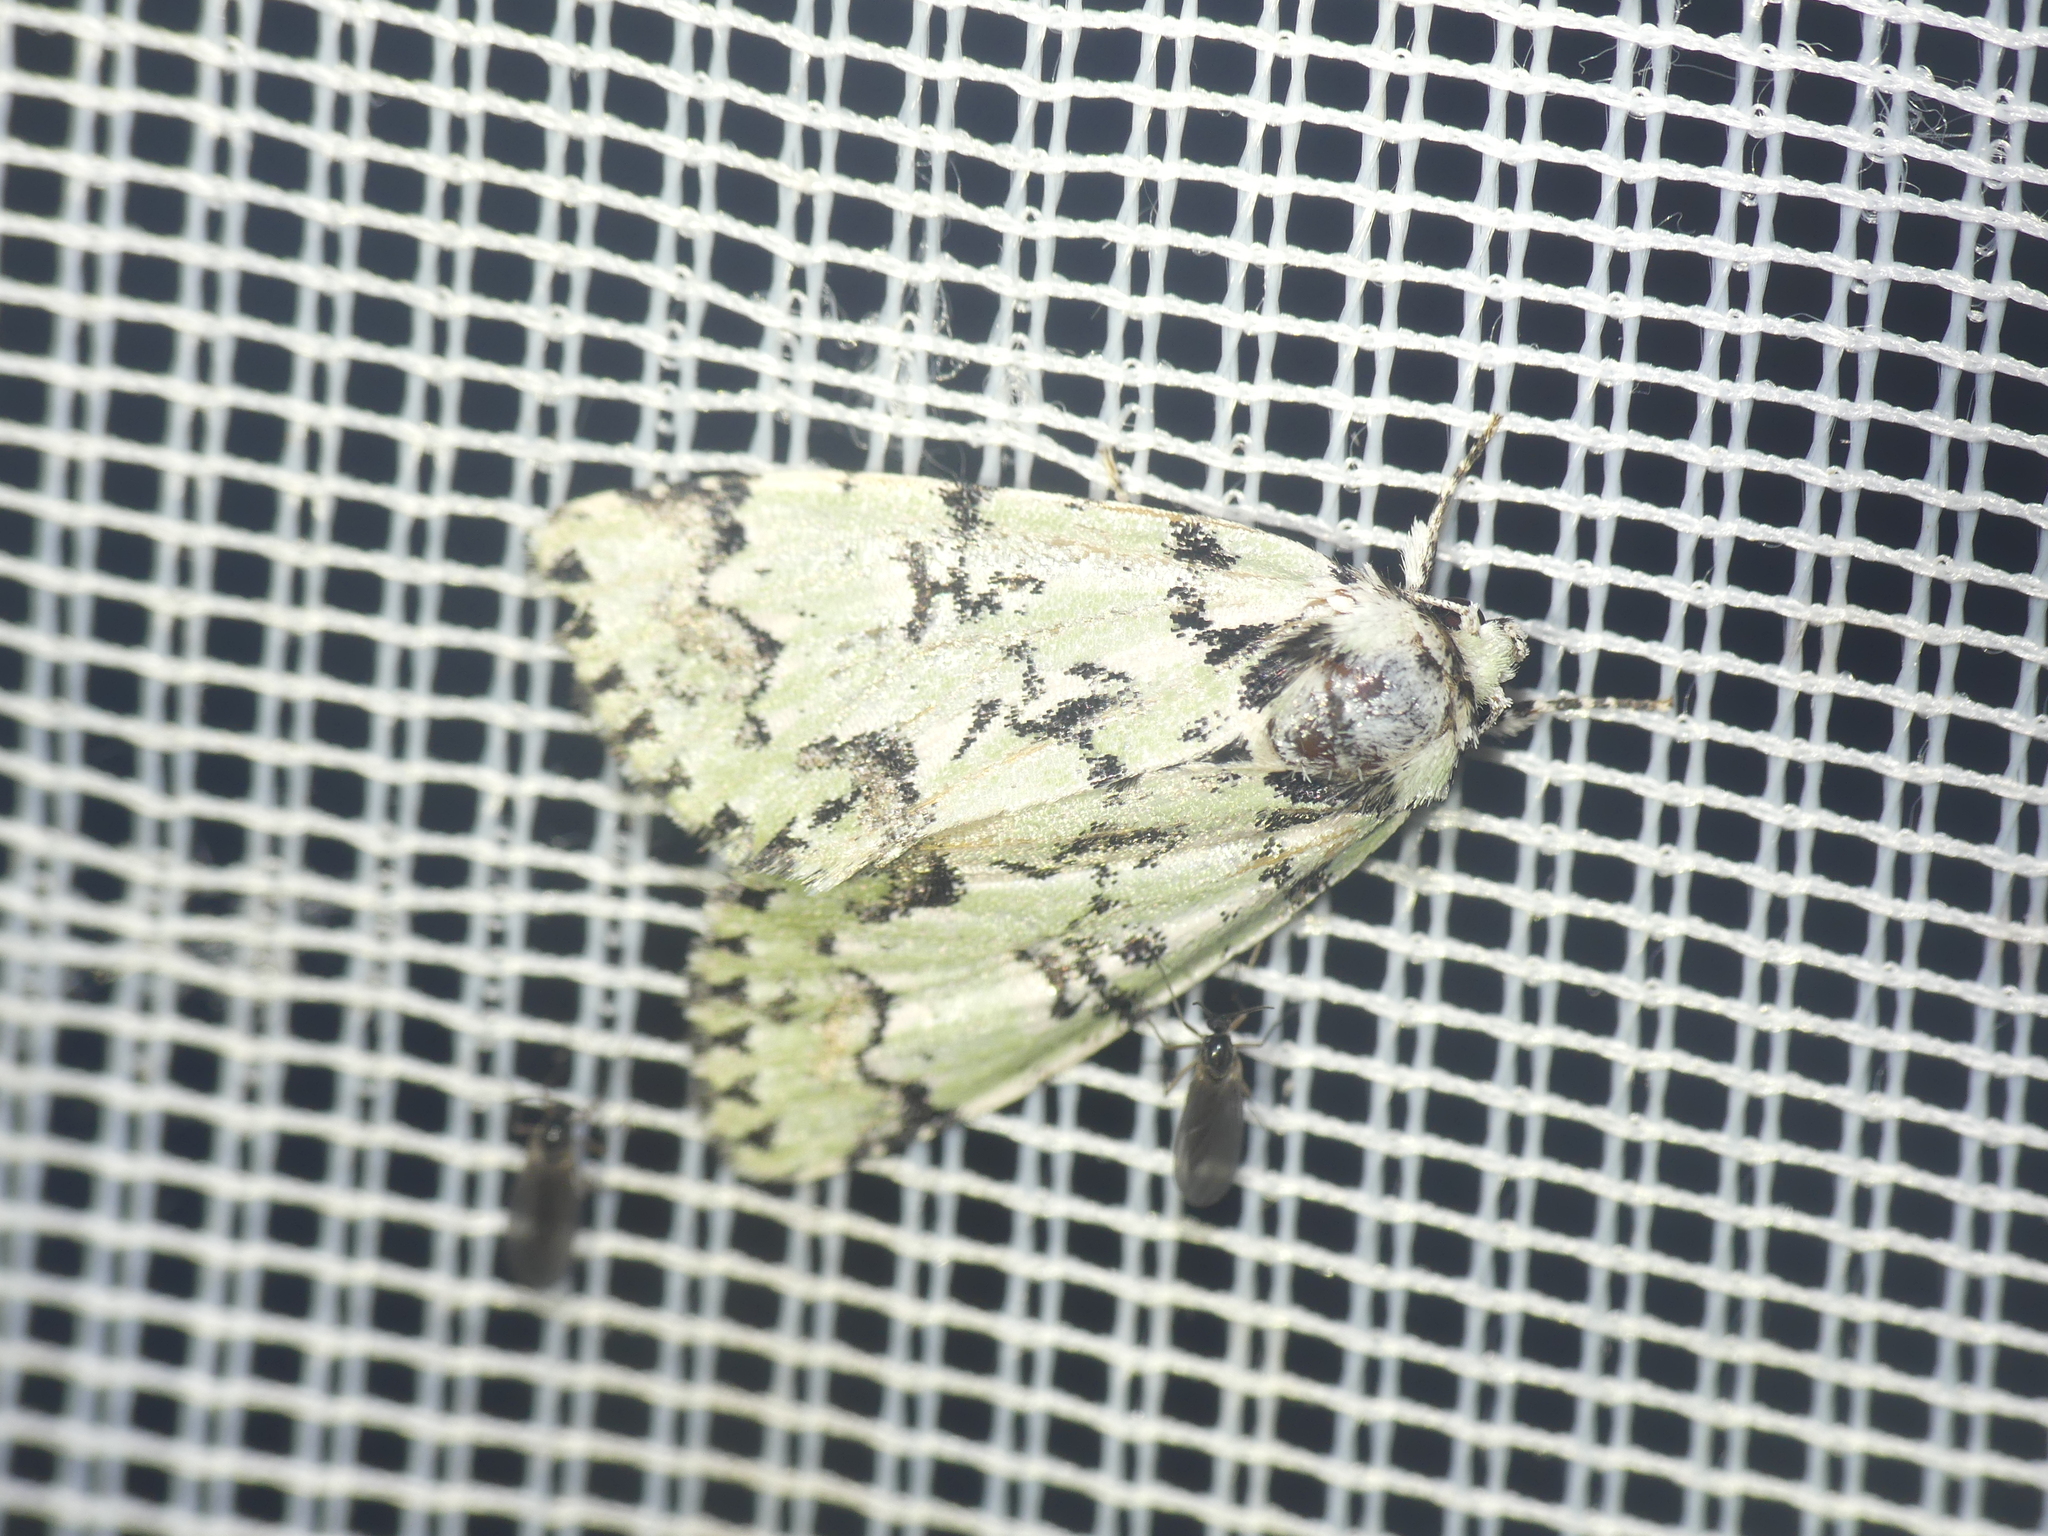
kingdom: Animalia
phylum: Arthropoda
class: Insecta
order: Lepidoptera
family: Noctuidae
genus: Moma
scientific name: Moma alpium
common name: Scarce merveille du jour
